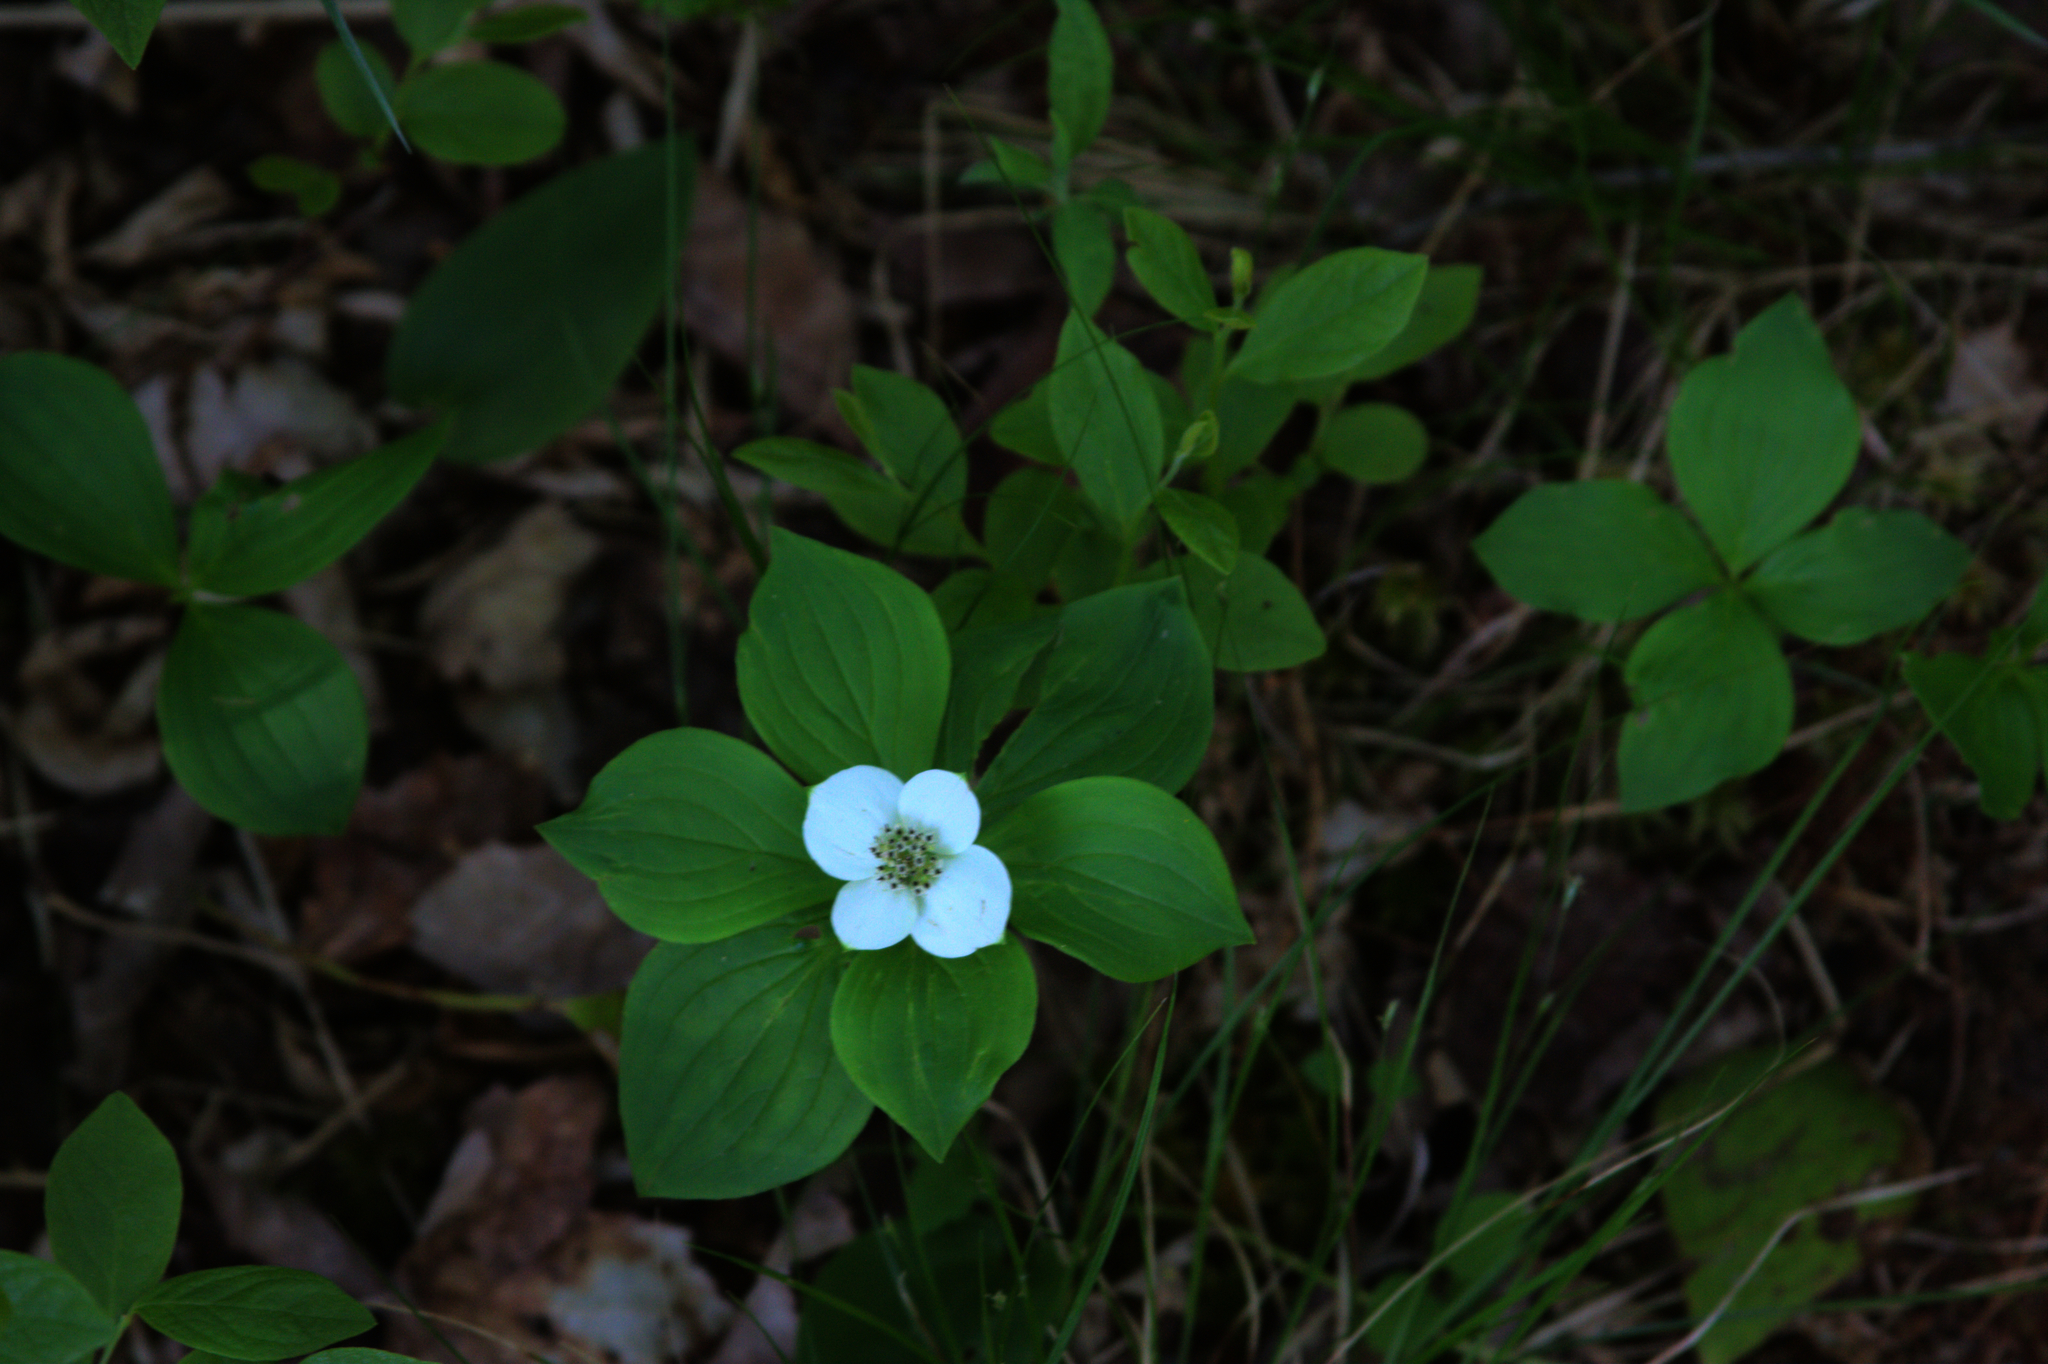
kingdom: Plantae
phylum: Tracheophyta
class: Magnoliopsida
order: Cornales
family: Cornaceae
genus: Cornus
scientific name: Cornus canadensis
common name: Creeping dogwood
